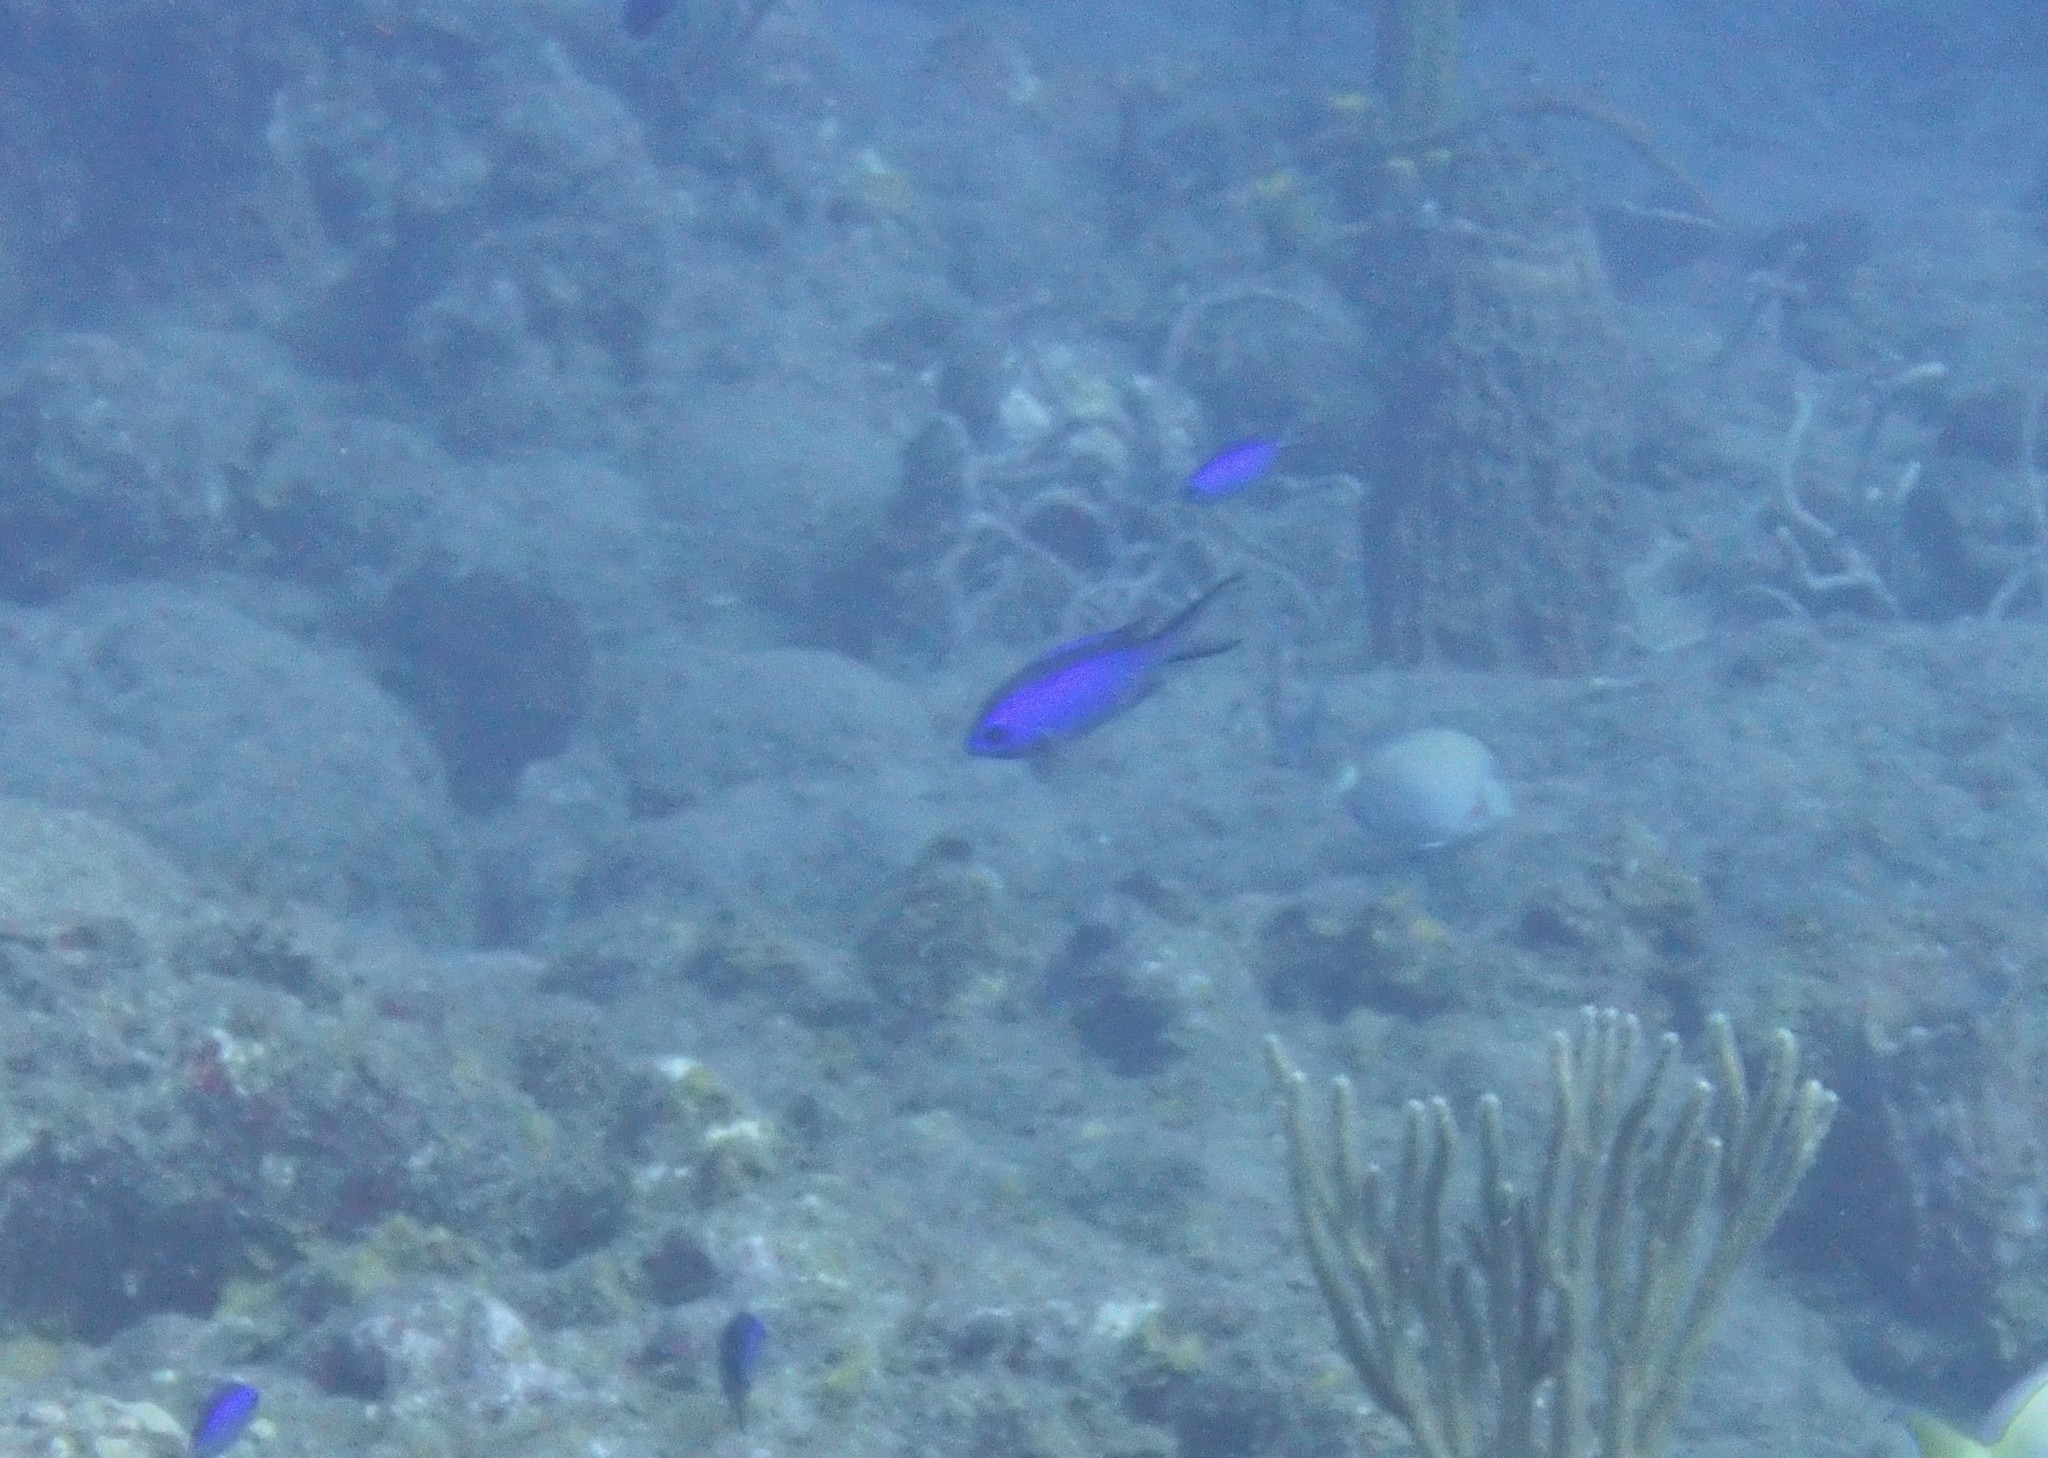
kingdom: Animalia
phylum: Chordata
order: Perciformes
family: Pomacentridae
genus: Chromis
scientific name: Chromis cyanea
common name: Blue chromis
